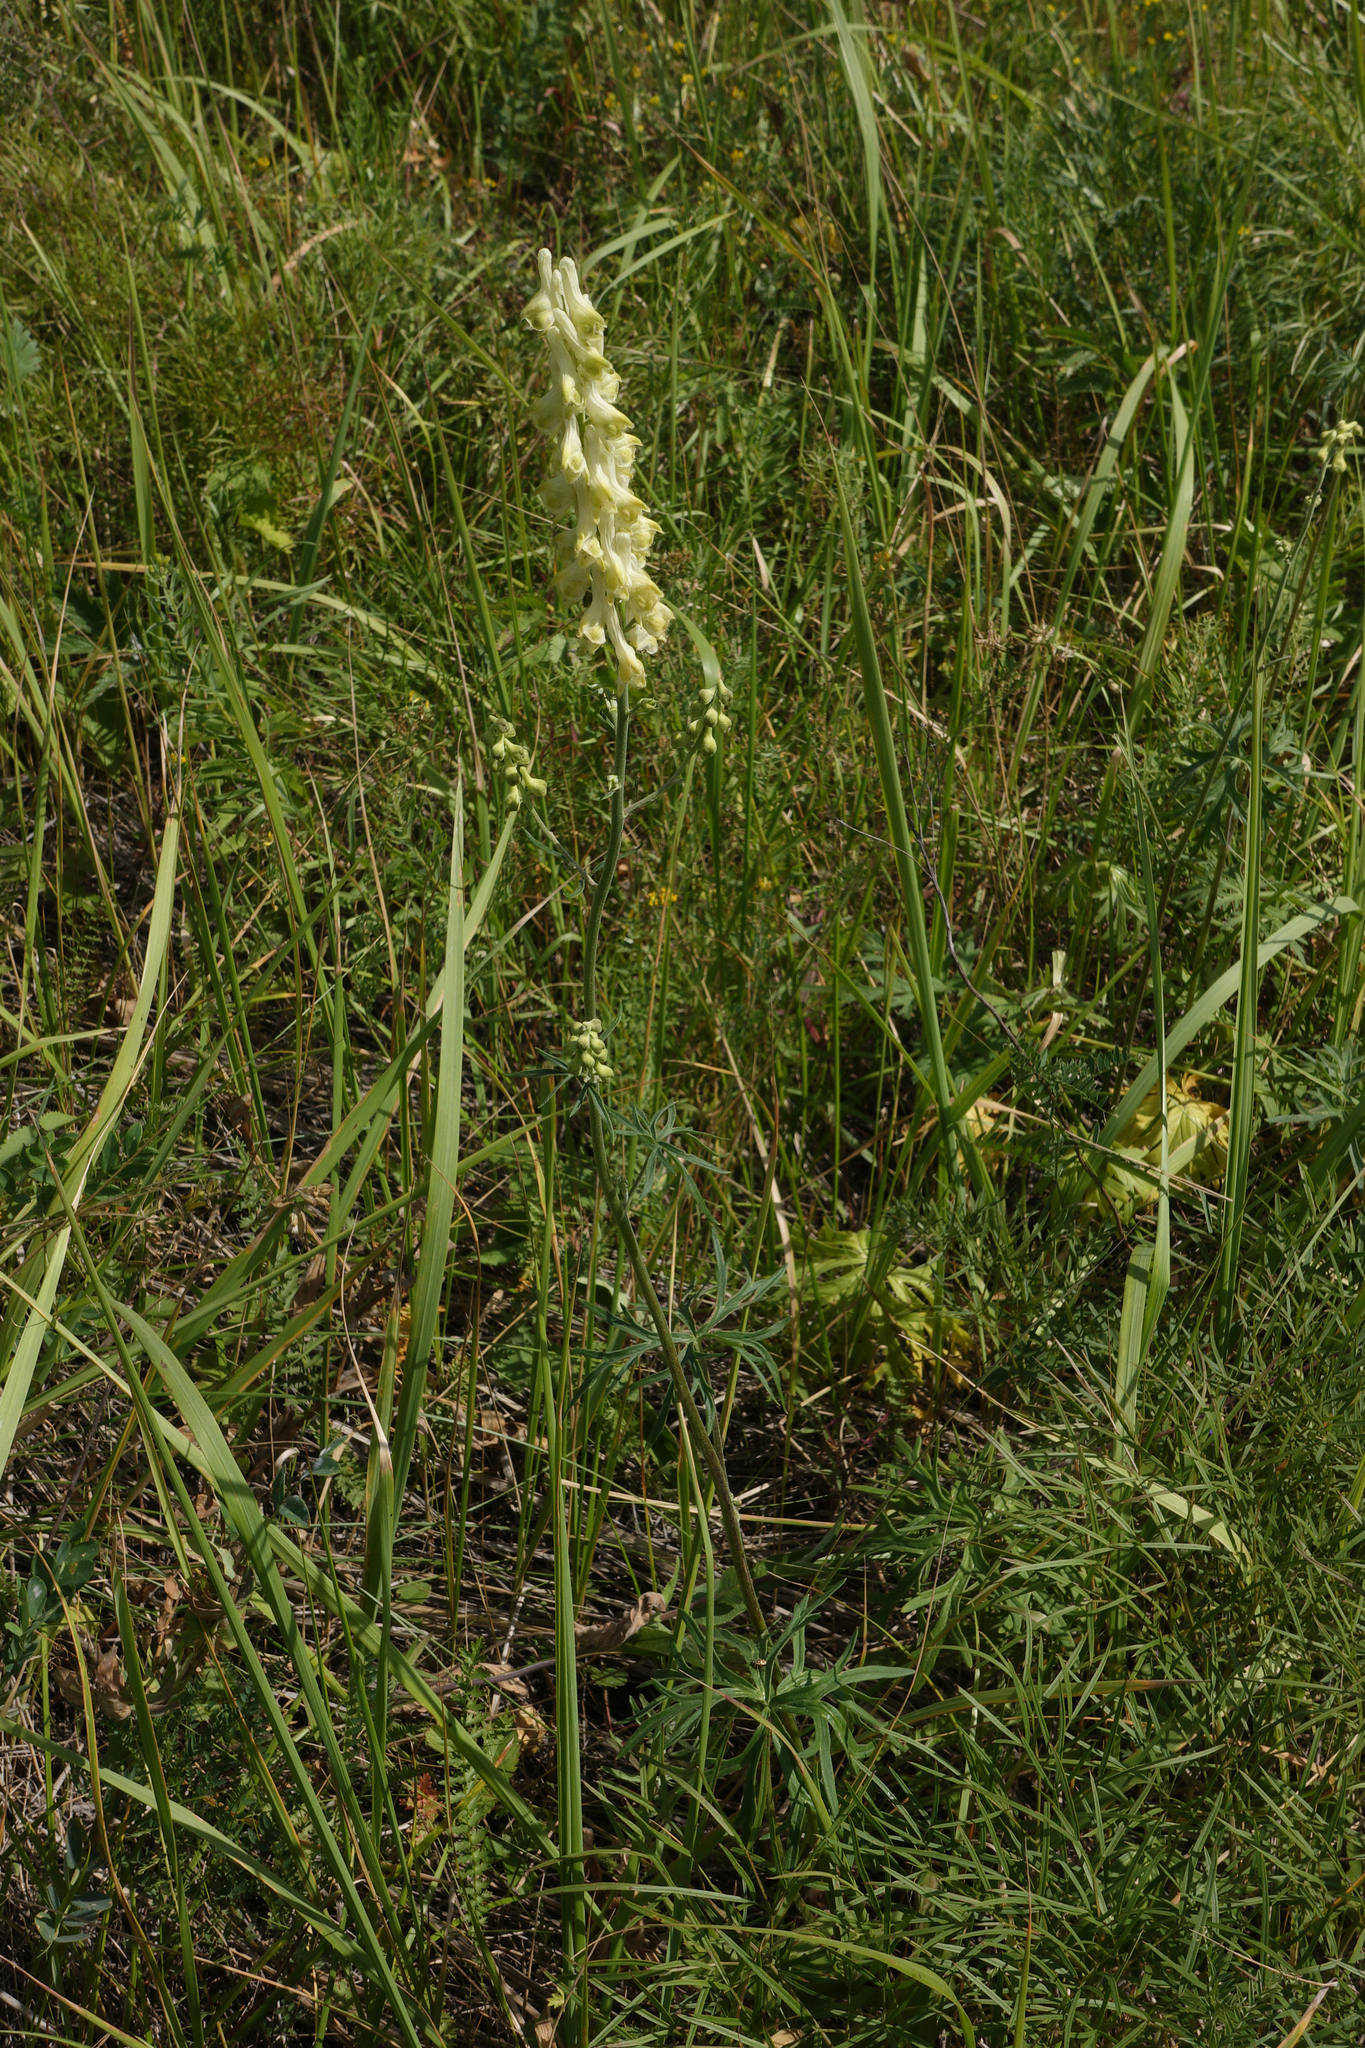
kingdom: Plantae
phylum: Tracheophyta
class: Magnoliopsida
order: Ranunculales
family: Ranunculaceae
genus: Aconitum
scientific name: Aconitum barbatum
